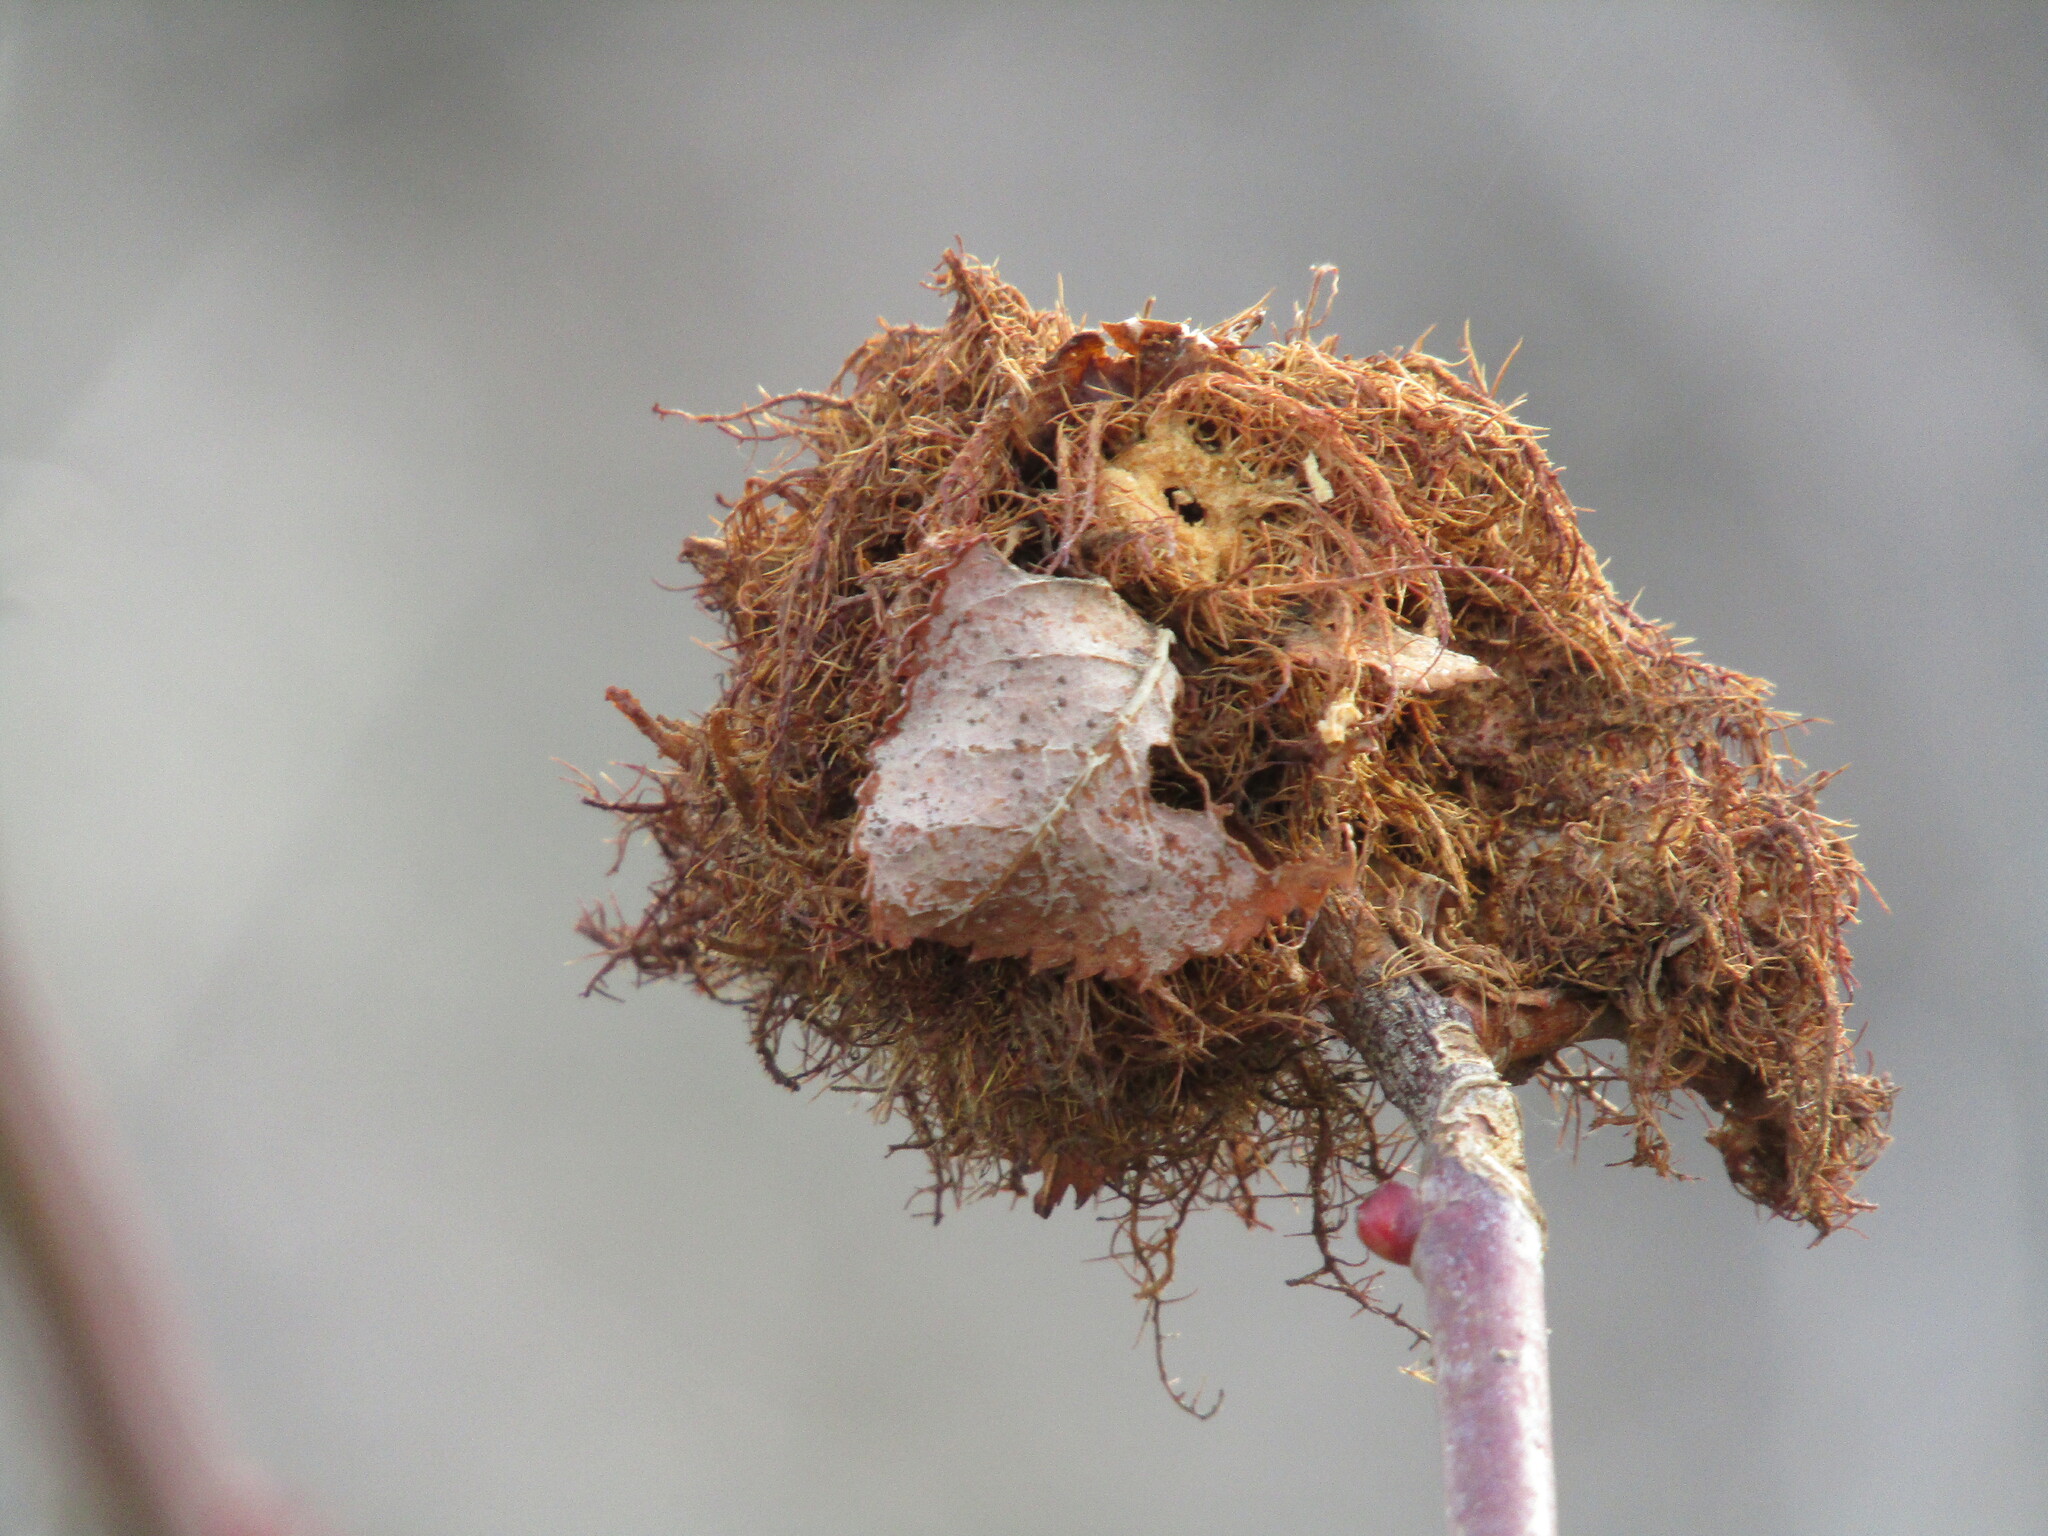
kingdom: Animalia
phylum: Arthropoda
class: Insecta
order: Hymenoptera
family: Cynipidae
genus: Diplolepis
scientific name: Diplolepis rosae
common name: Bedeguar gall
